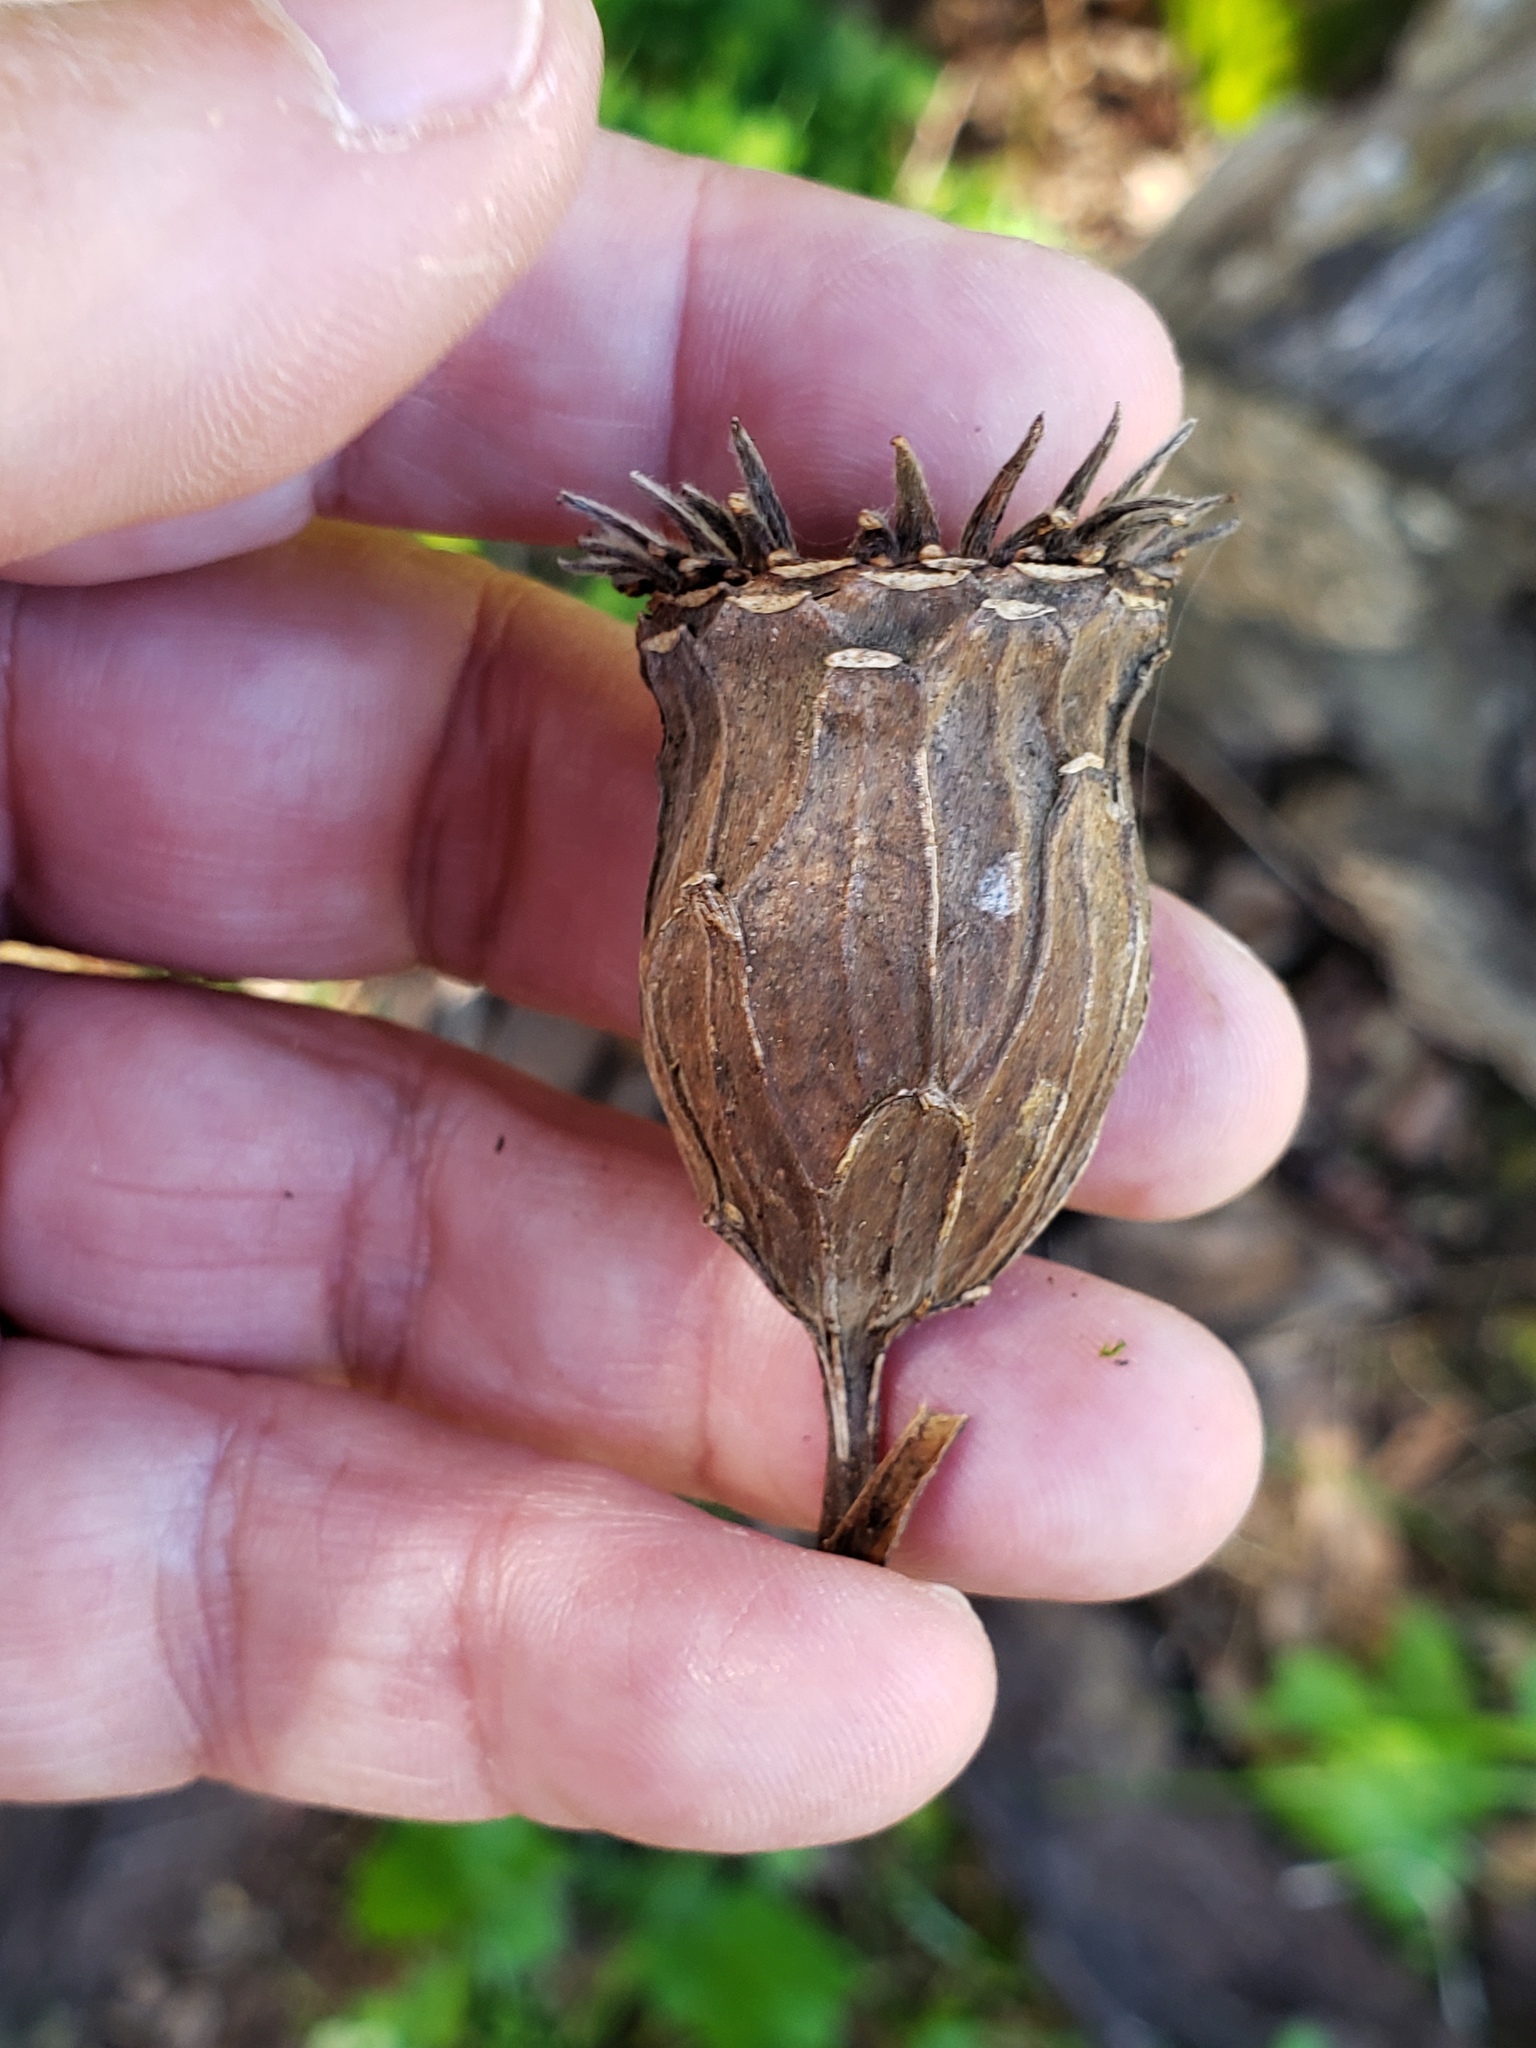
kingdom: Plantae
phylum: Tracheophyta
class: Magnoliopsida
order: Laurales
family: Calycanthaceae
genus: Calycanthus
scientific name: Calycanthus occidentalis
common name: California spicebush
